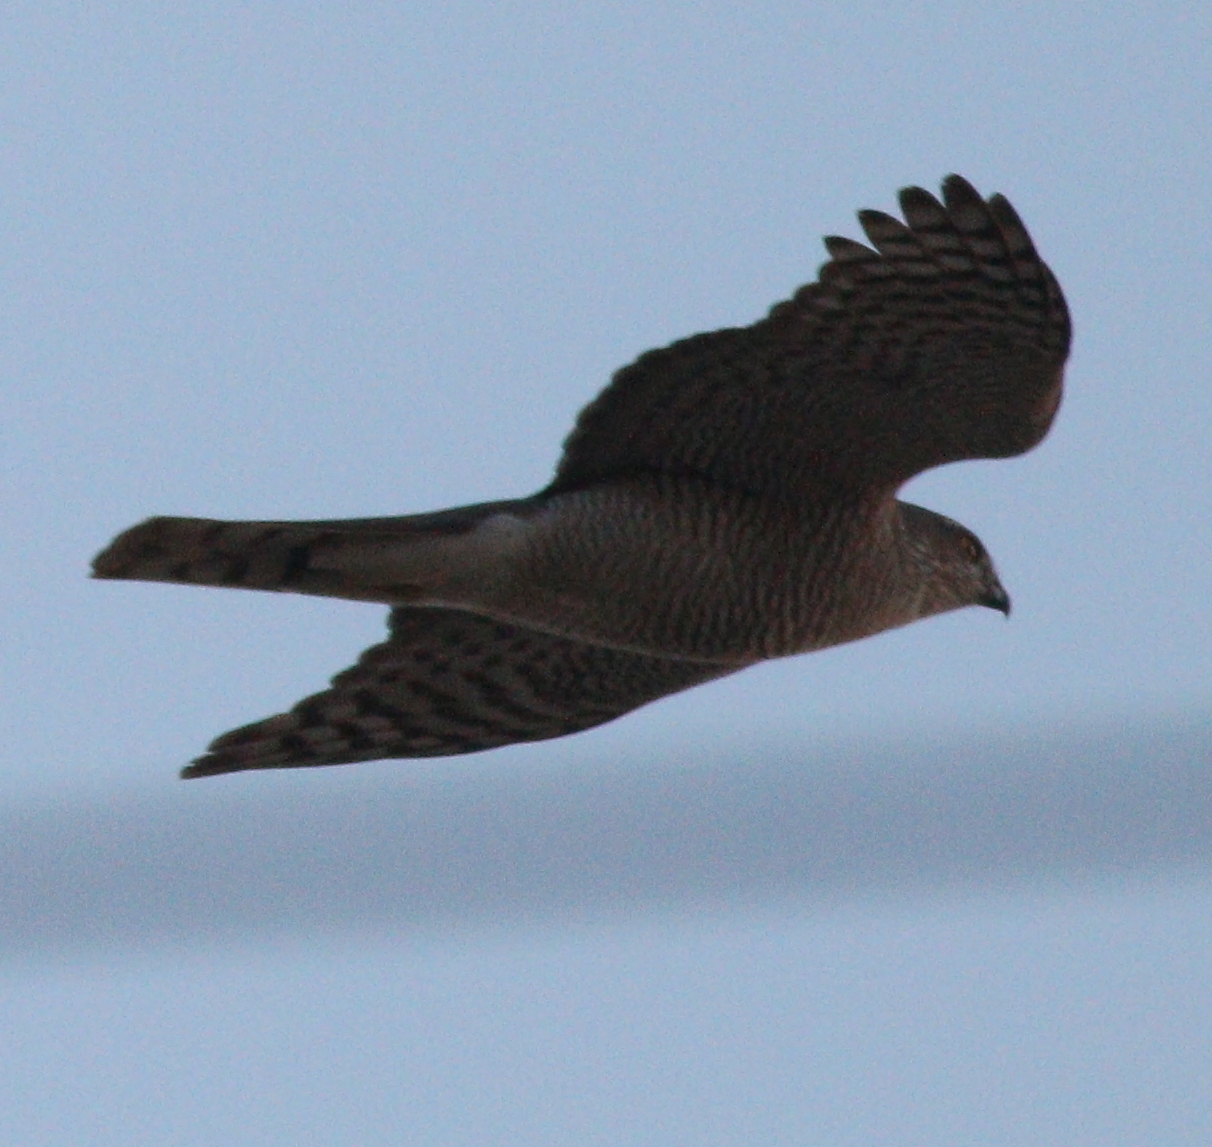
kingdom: Animalia
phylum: Chordata
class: Aves
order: Accipitriformes
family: Accipitridae
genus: Accipiter
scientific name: Accipiter nisus
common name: Eurasian sparrowhawk
